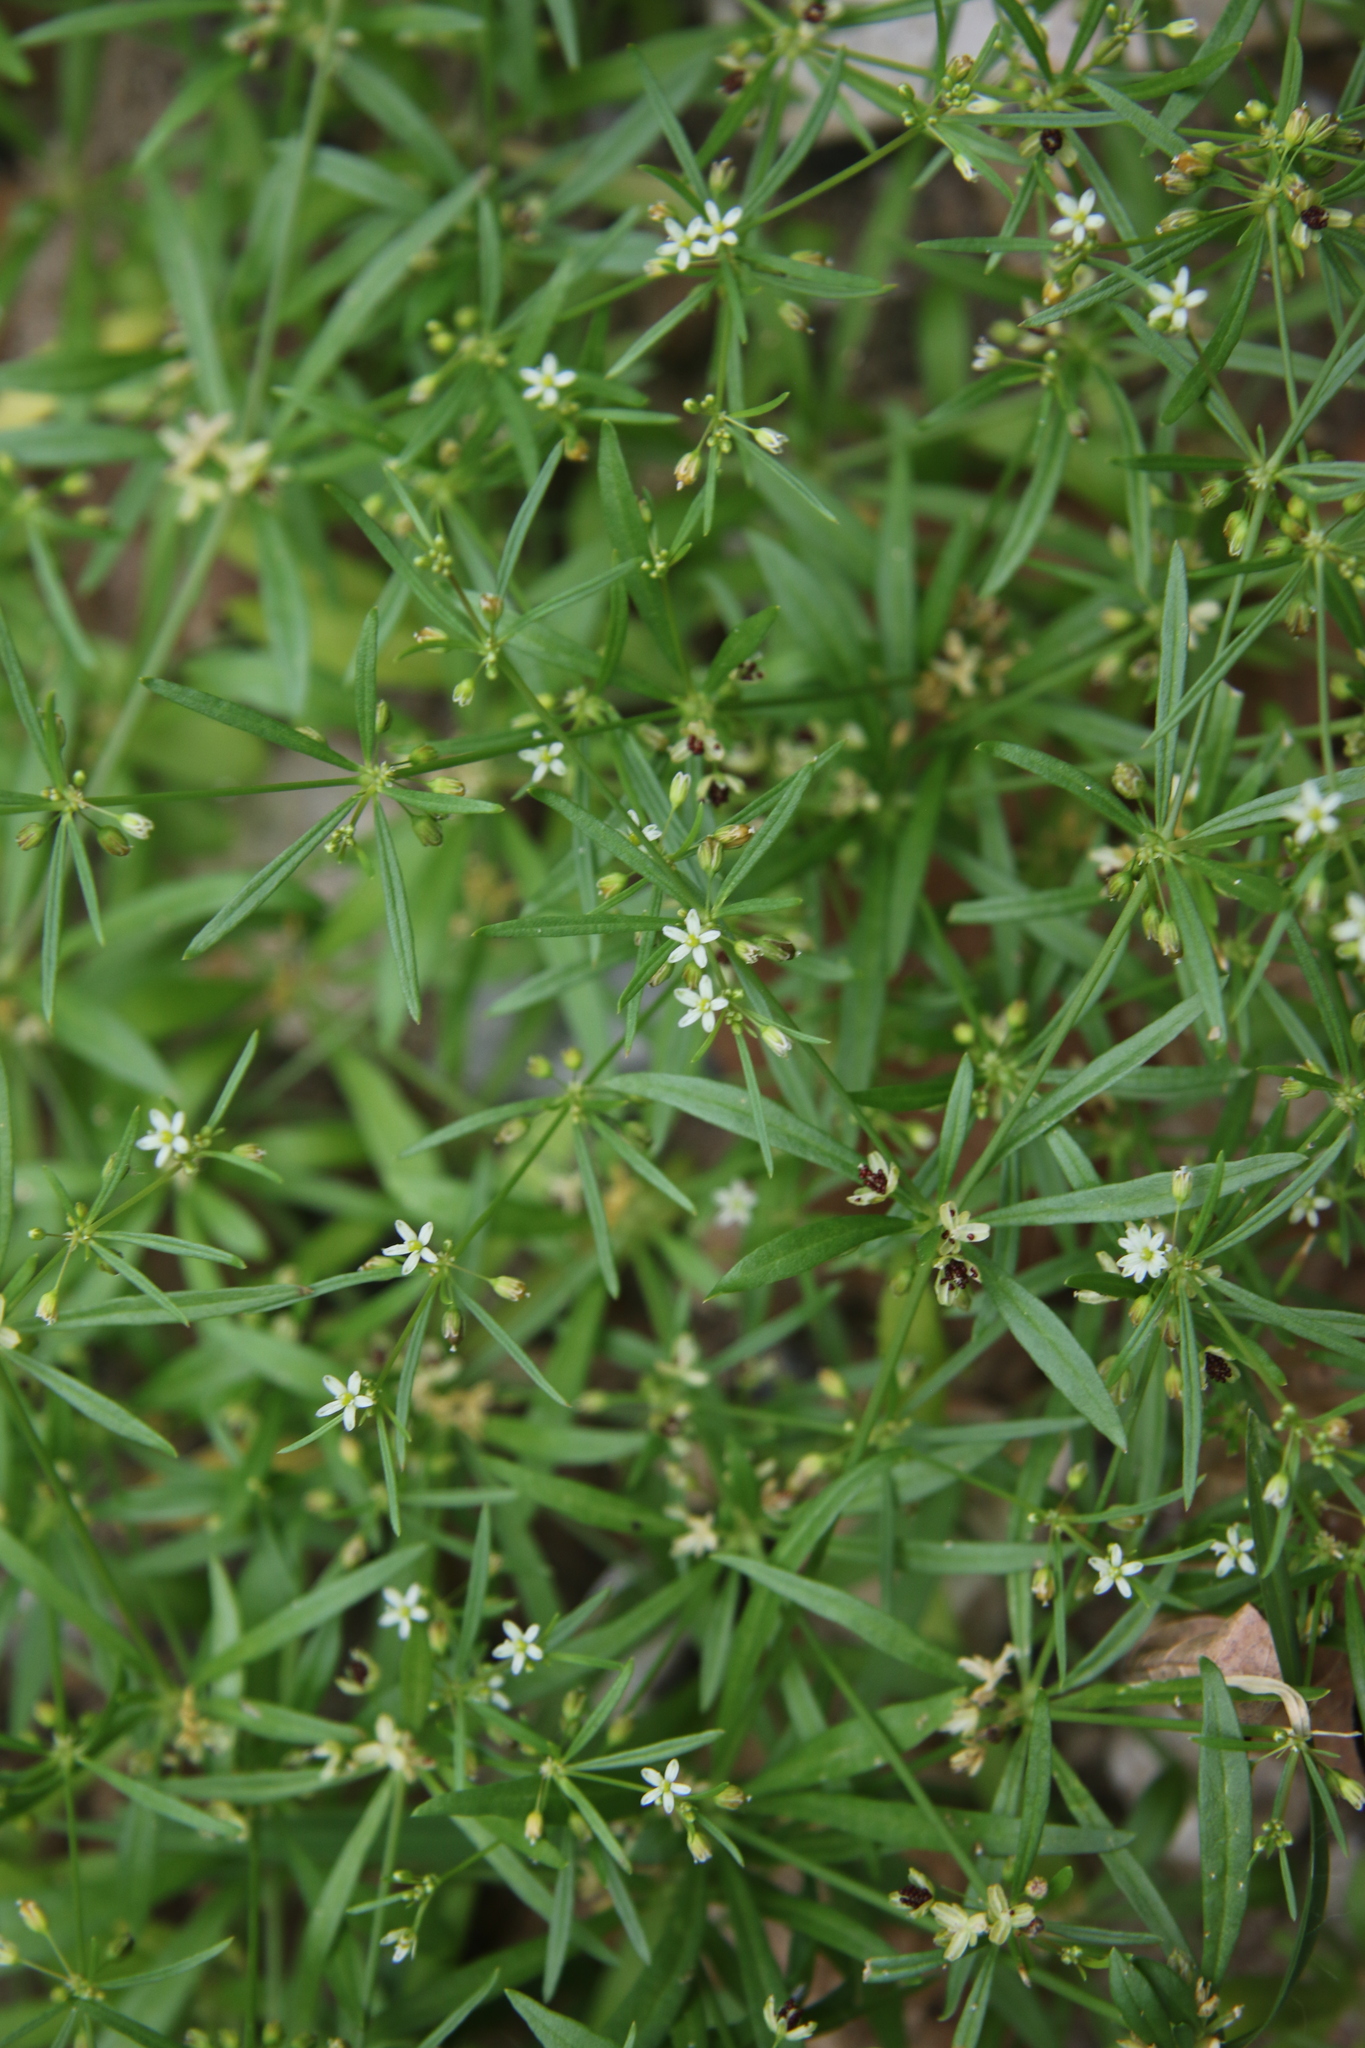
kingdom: Plantae
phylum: Tracheophyta
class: Magnoliopsida
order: Caryophyllales
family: Molluginaceae
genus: Mollugo
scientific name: Mollugo verticillata
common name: Green carpetweed
